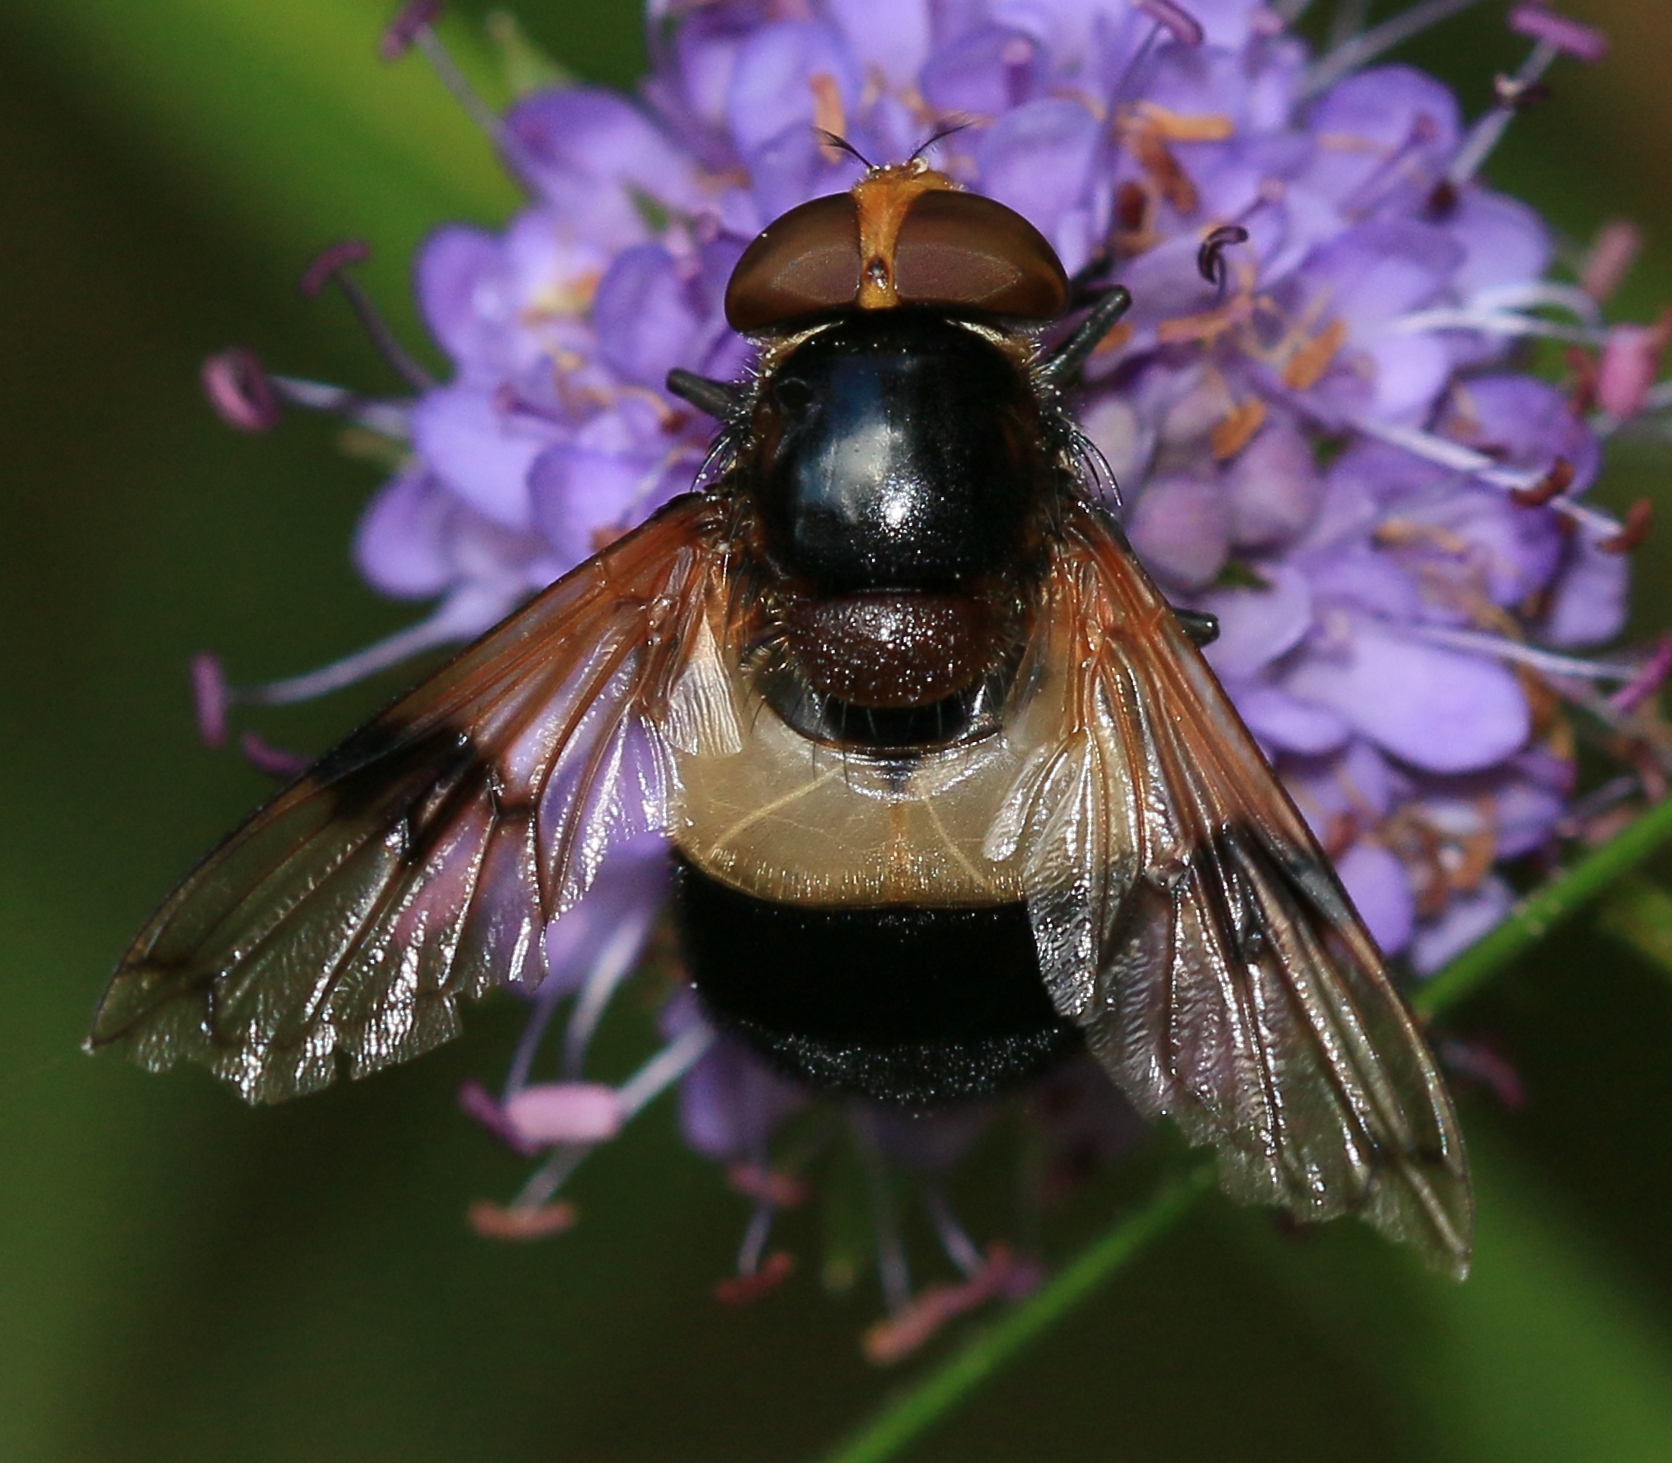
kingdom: Animalia
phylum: Arthropoda
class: Insecta
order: Diptera
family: Syrphidae
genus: Volucella
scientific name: Volucella pellucens
